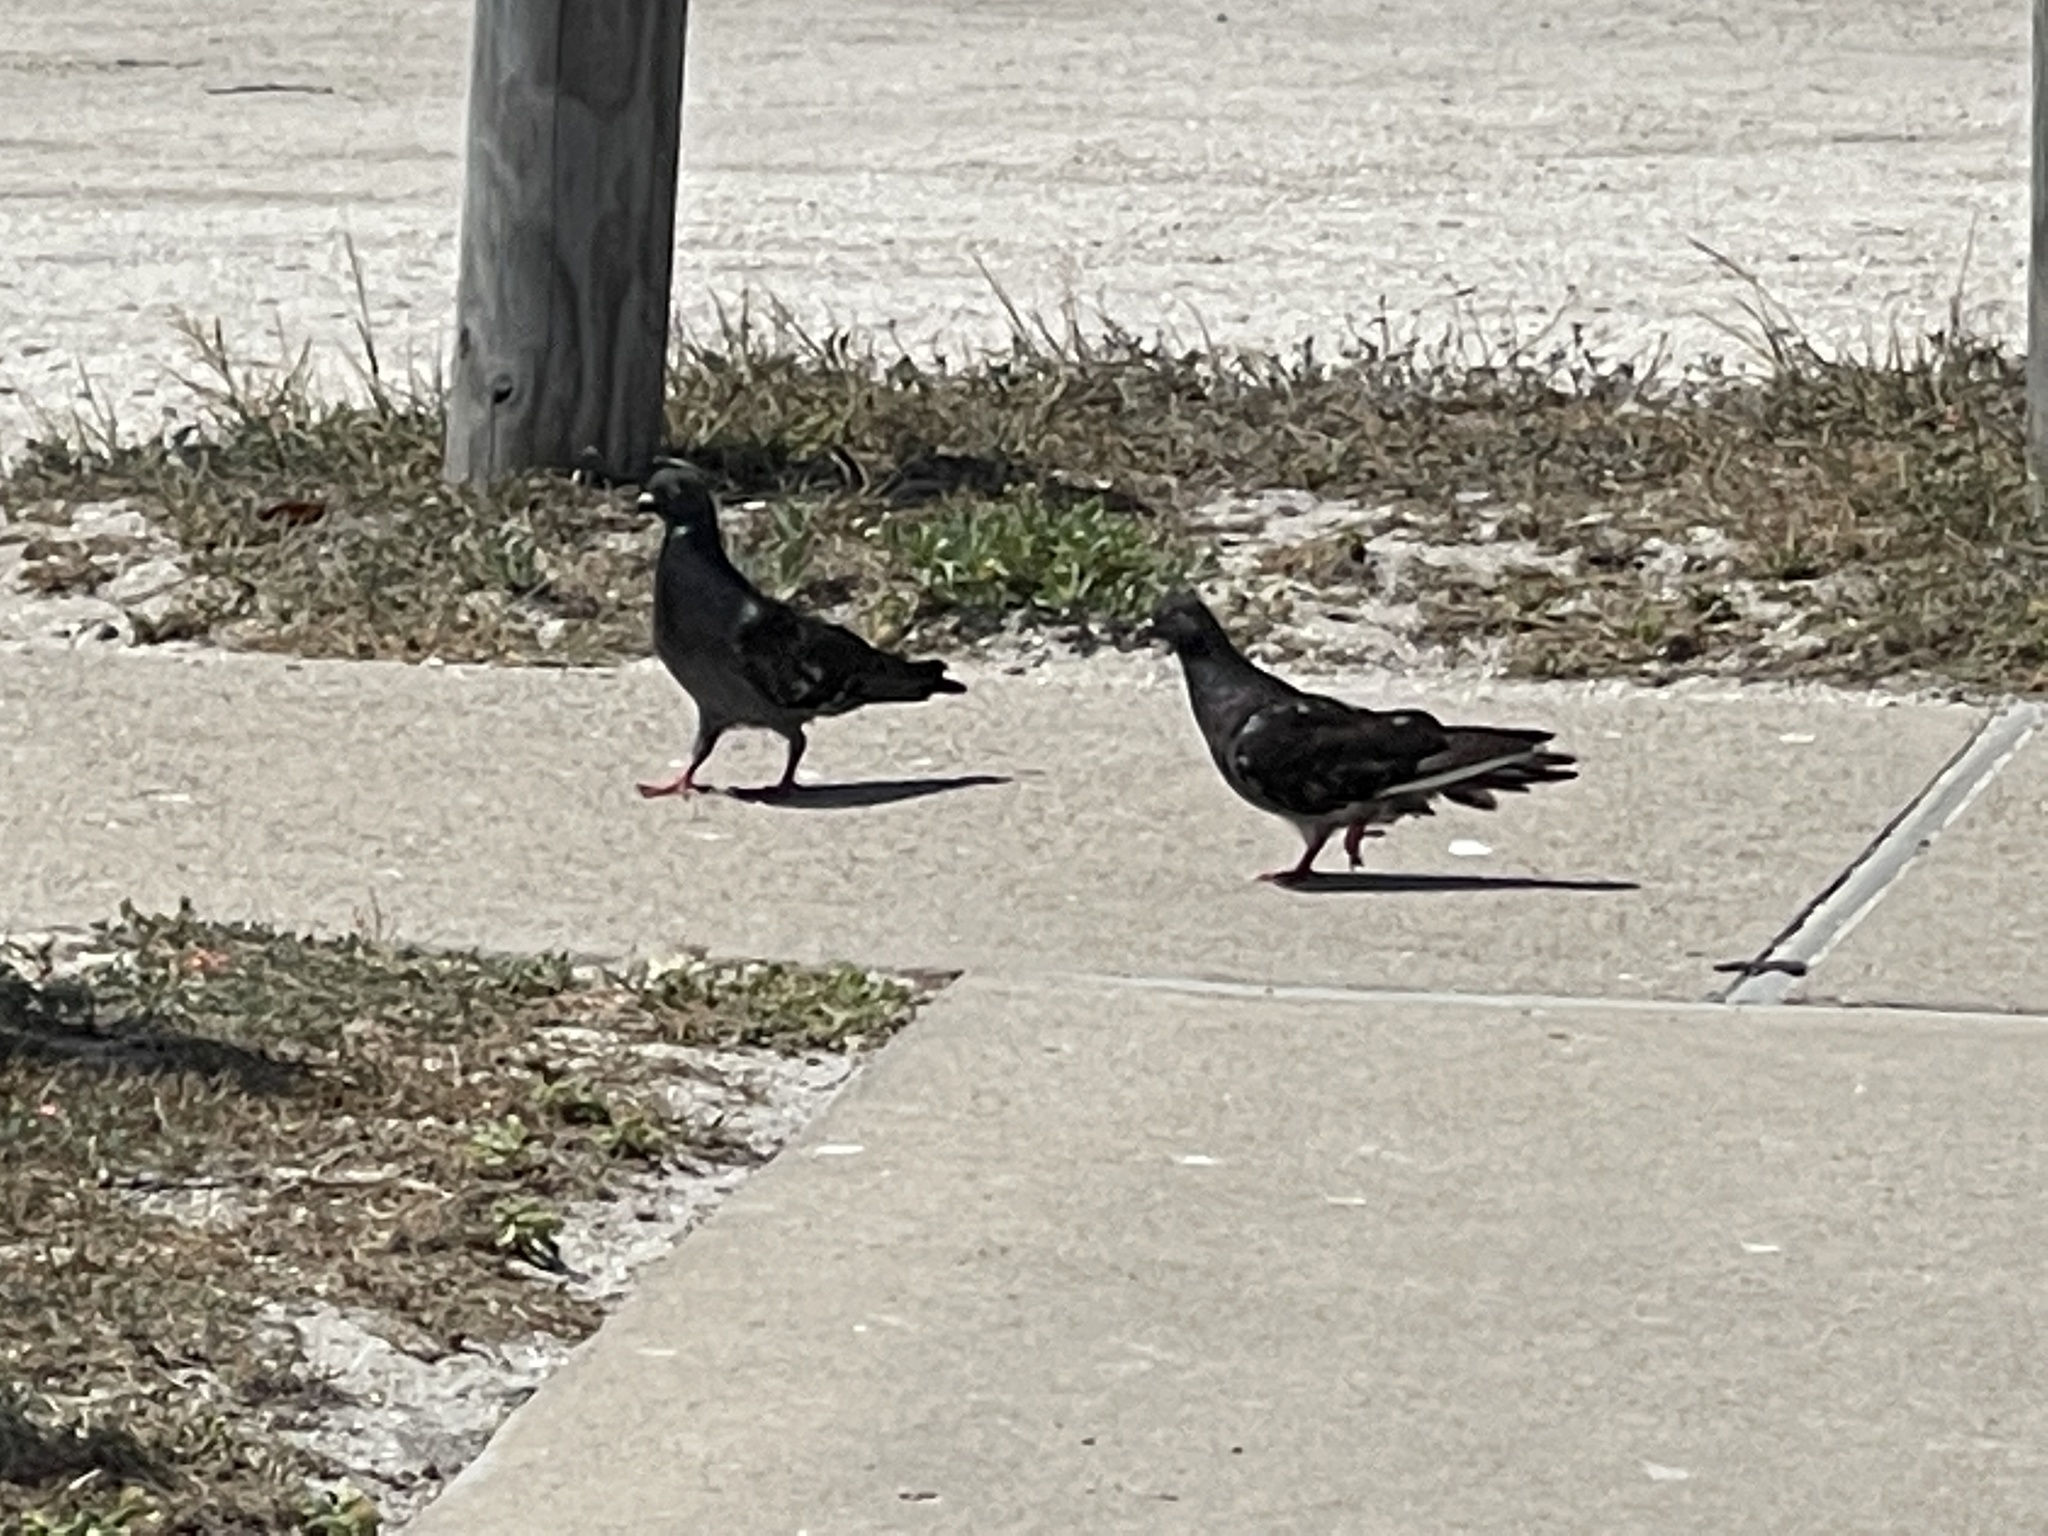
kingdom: Animalia
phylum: Chordata
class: Aves
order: Columbiformes
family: Columbidae
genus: Columba
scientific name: Columba livia
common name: Rock pigeon
